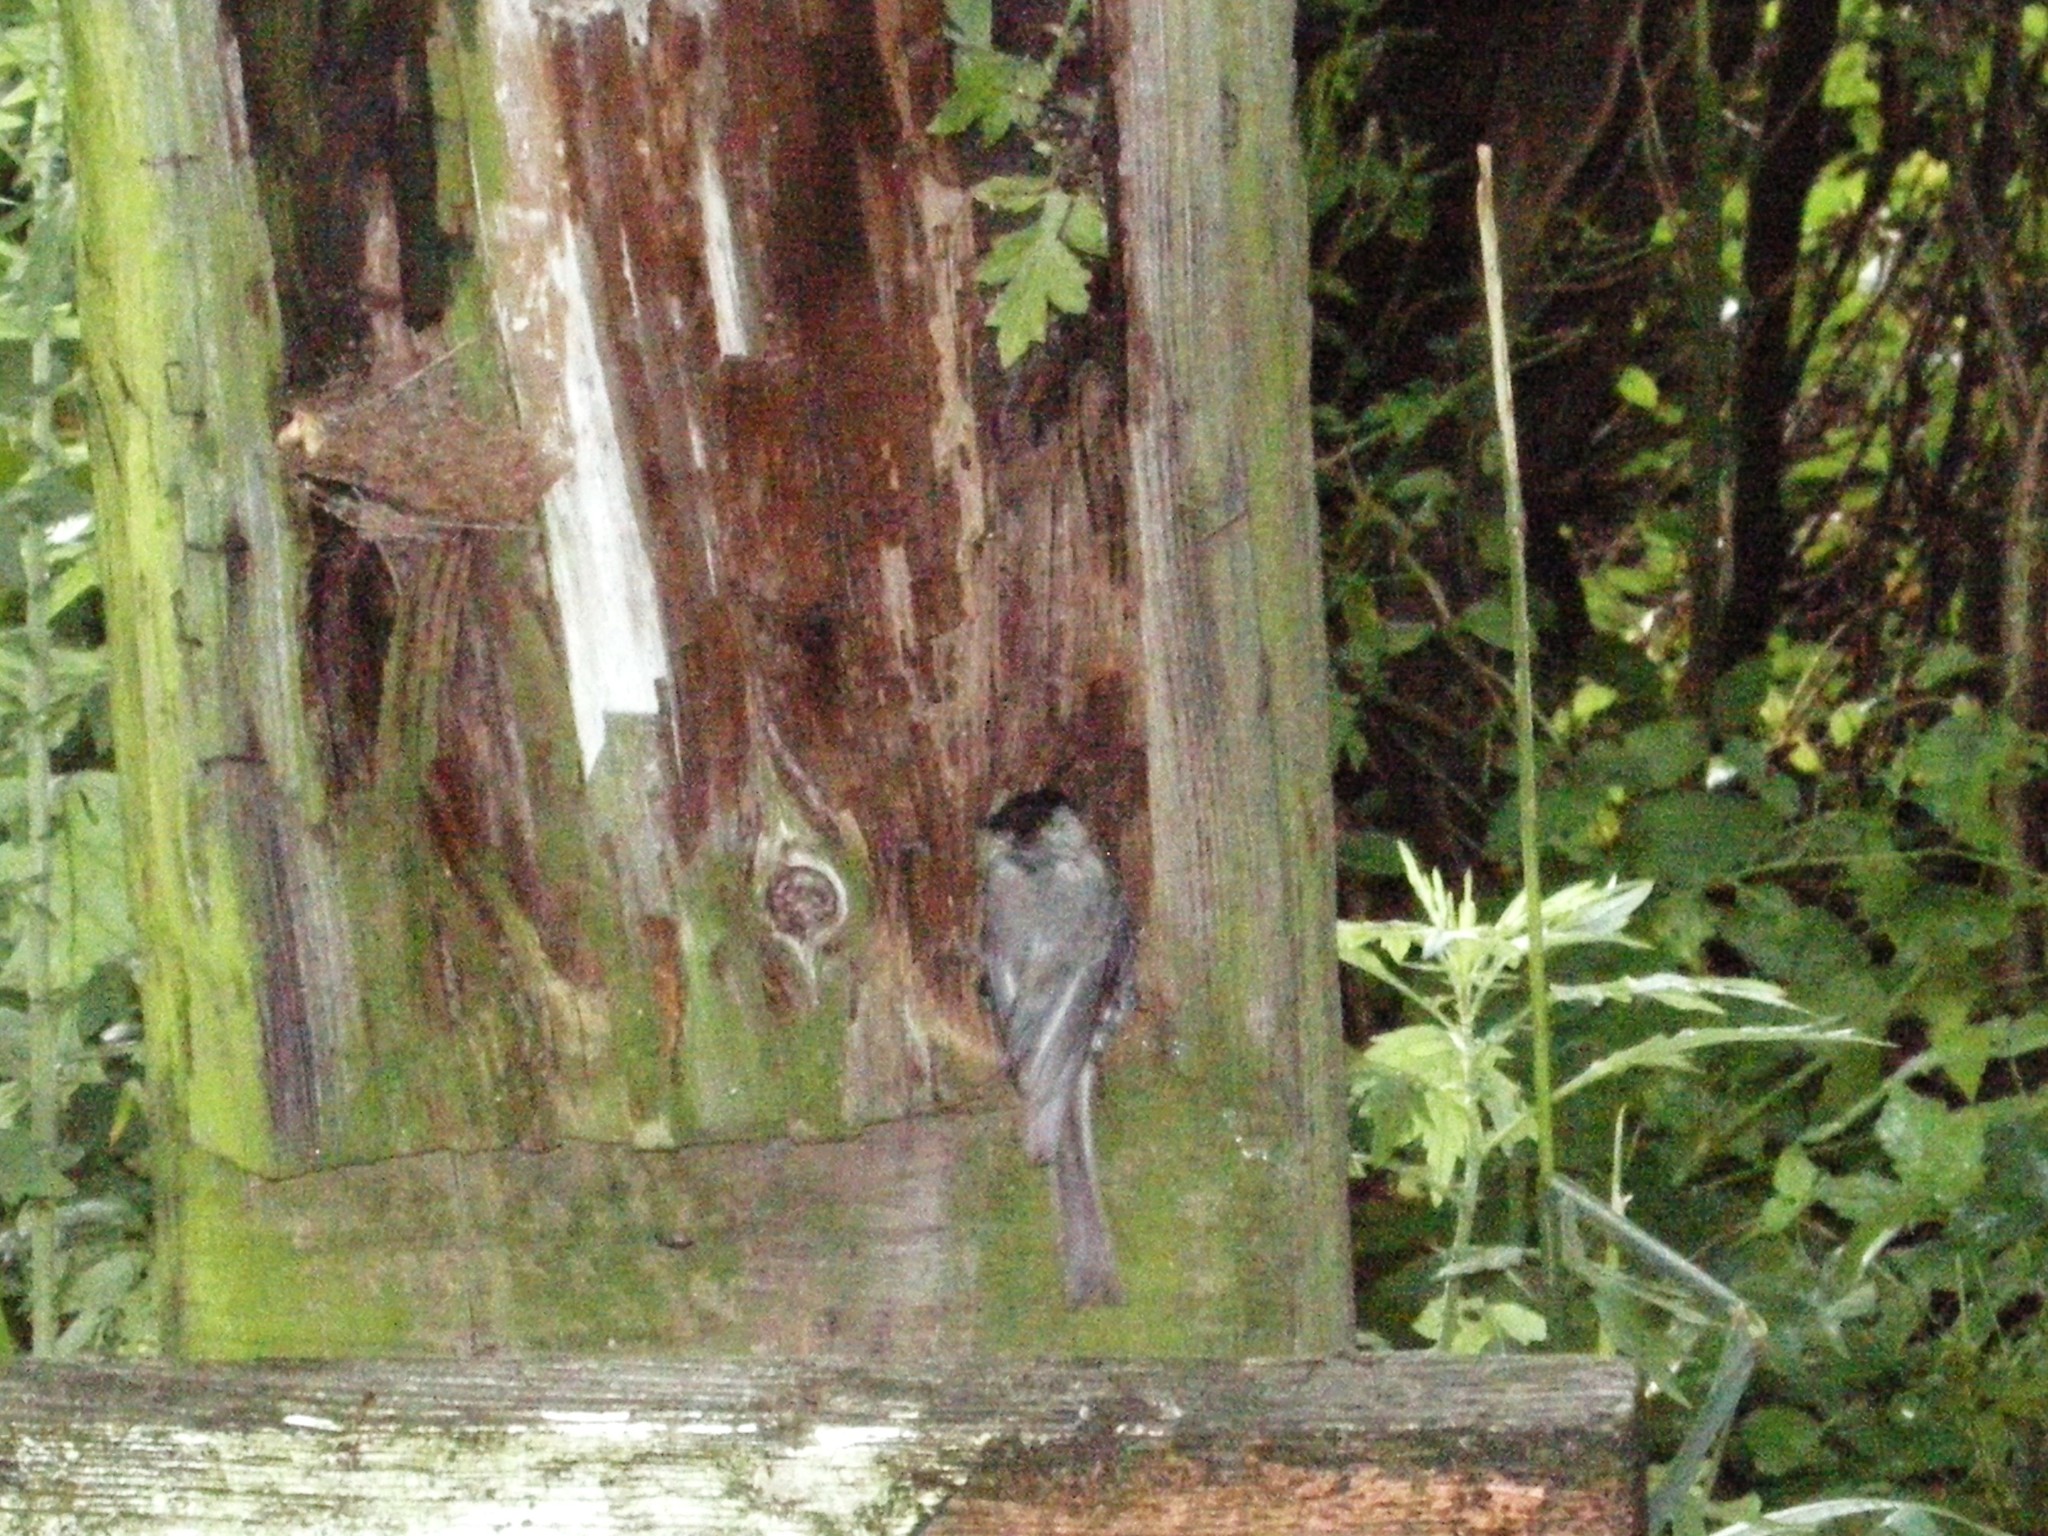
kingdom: Animalia
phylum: Chordata
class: Aves
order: Passeriformes
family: Paridae
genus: Poecile
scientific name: Poecile carolinensis
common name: Carolina chickadee
